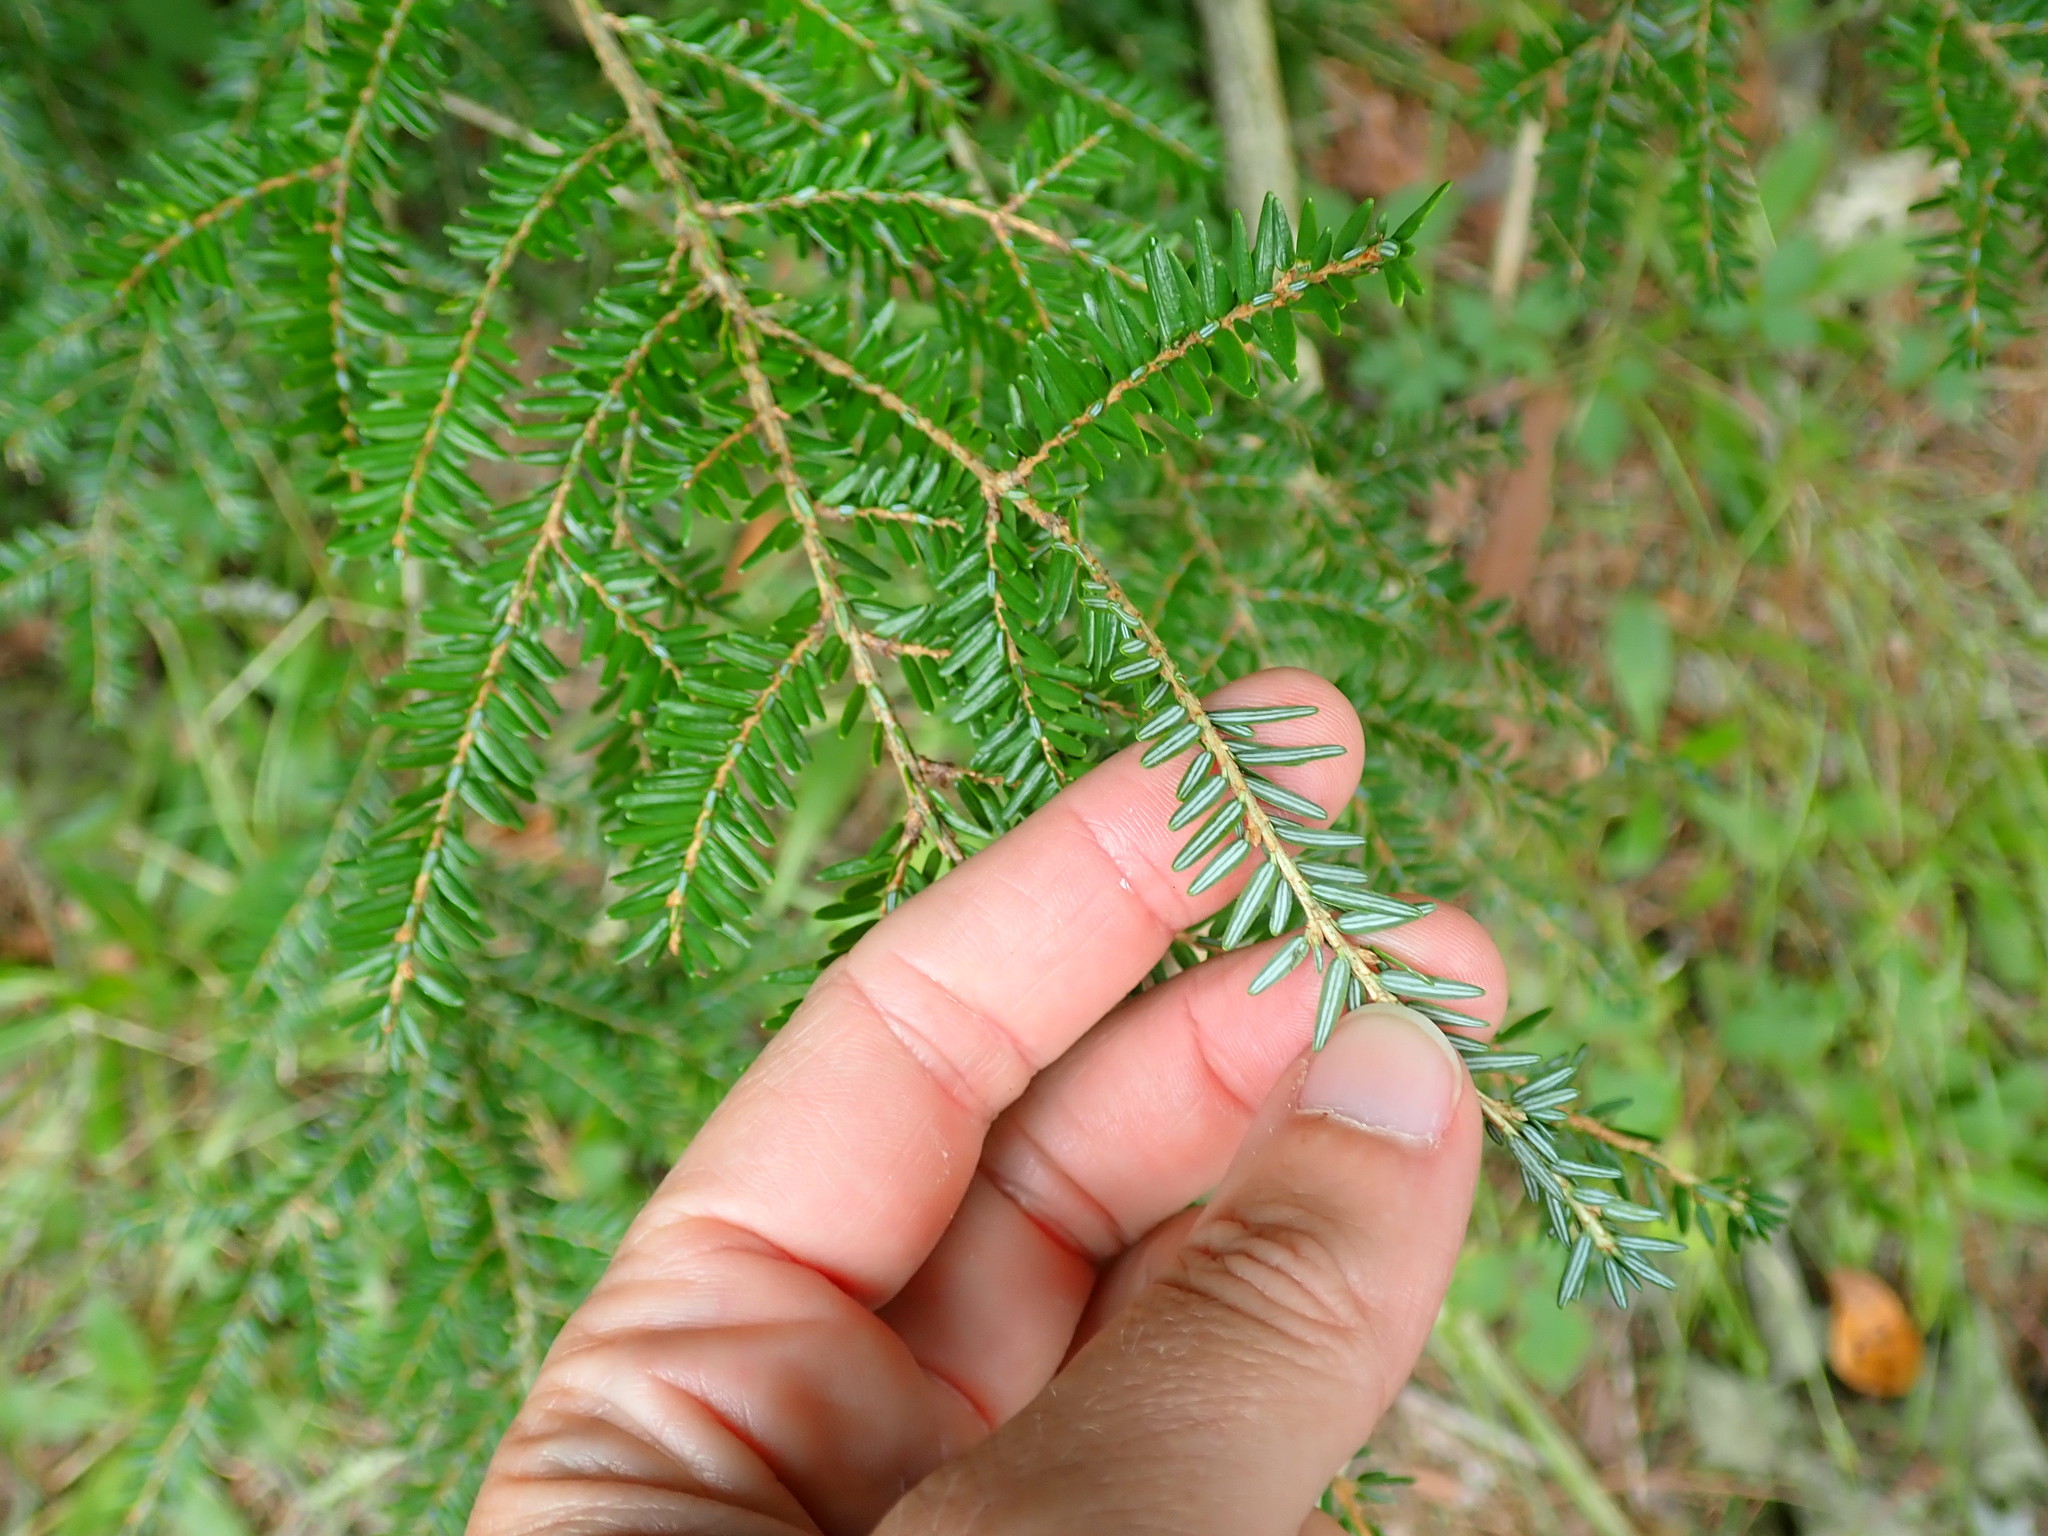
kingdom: Plantae
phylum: Tracheophyta
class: Pinopsida
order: Pinales
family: Pinaceae
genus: Tsuga
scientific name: Tsuga canadensis
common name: Eastern hemlock
